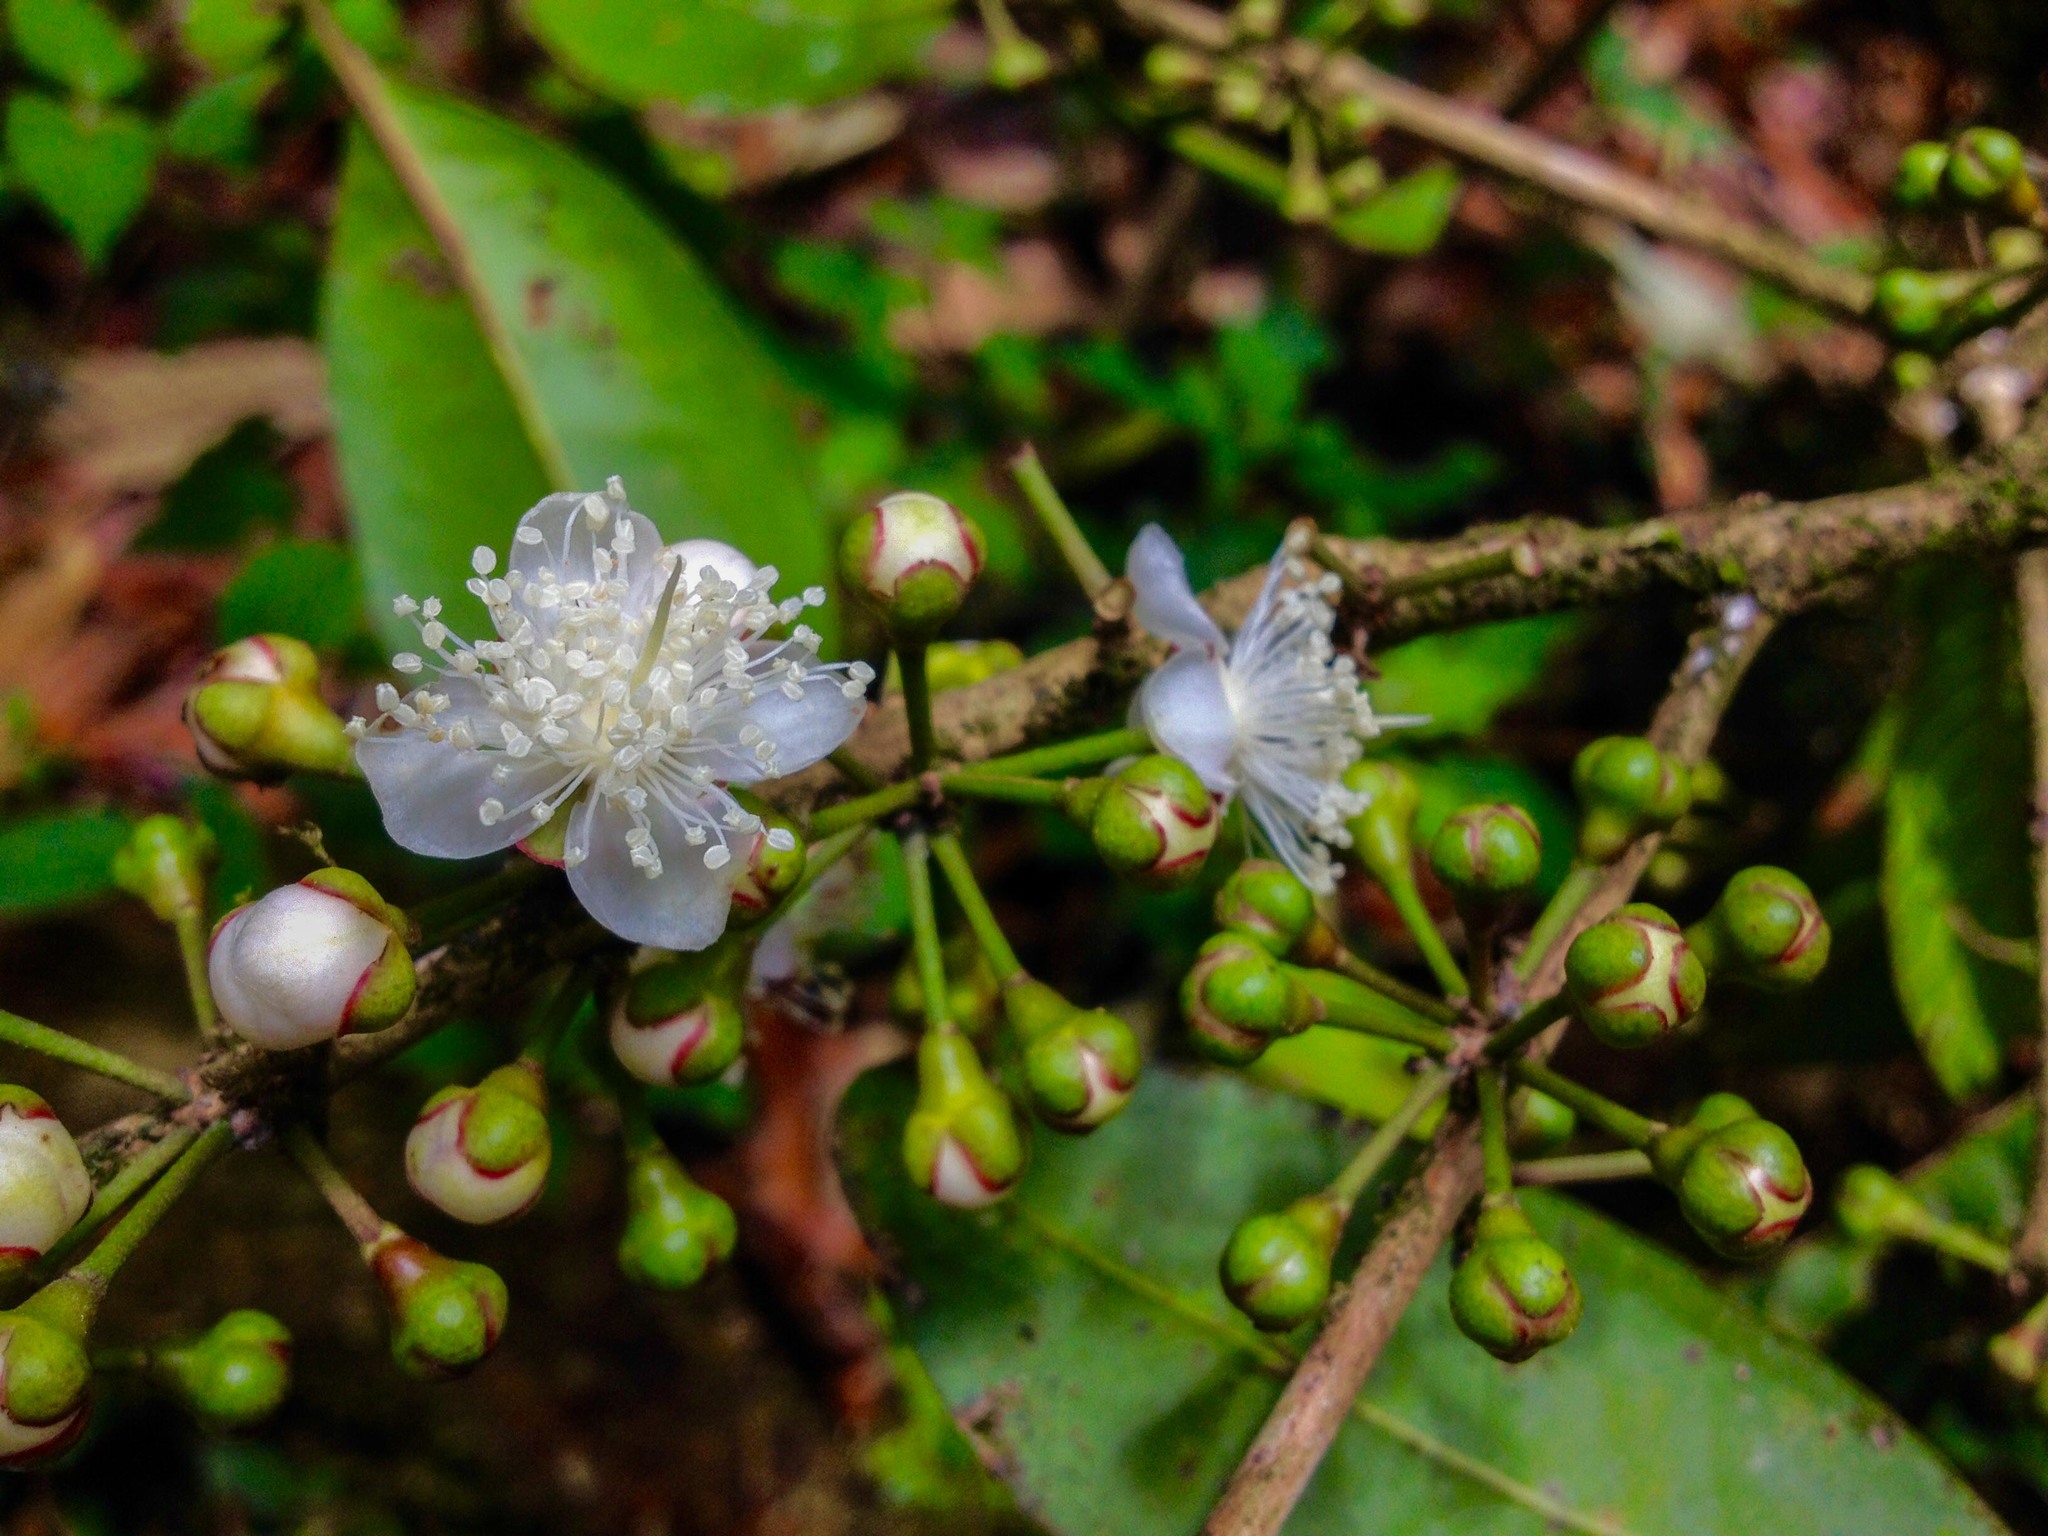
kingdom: Plantae
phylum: Tracheophyta
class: Magnoliopsida
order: Myrtales
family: Myrtaceae
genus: Eugenia
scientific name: Eugenia naraveana
